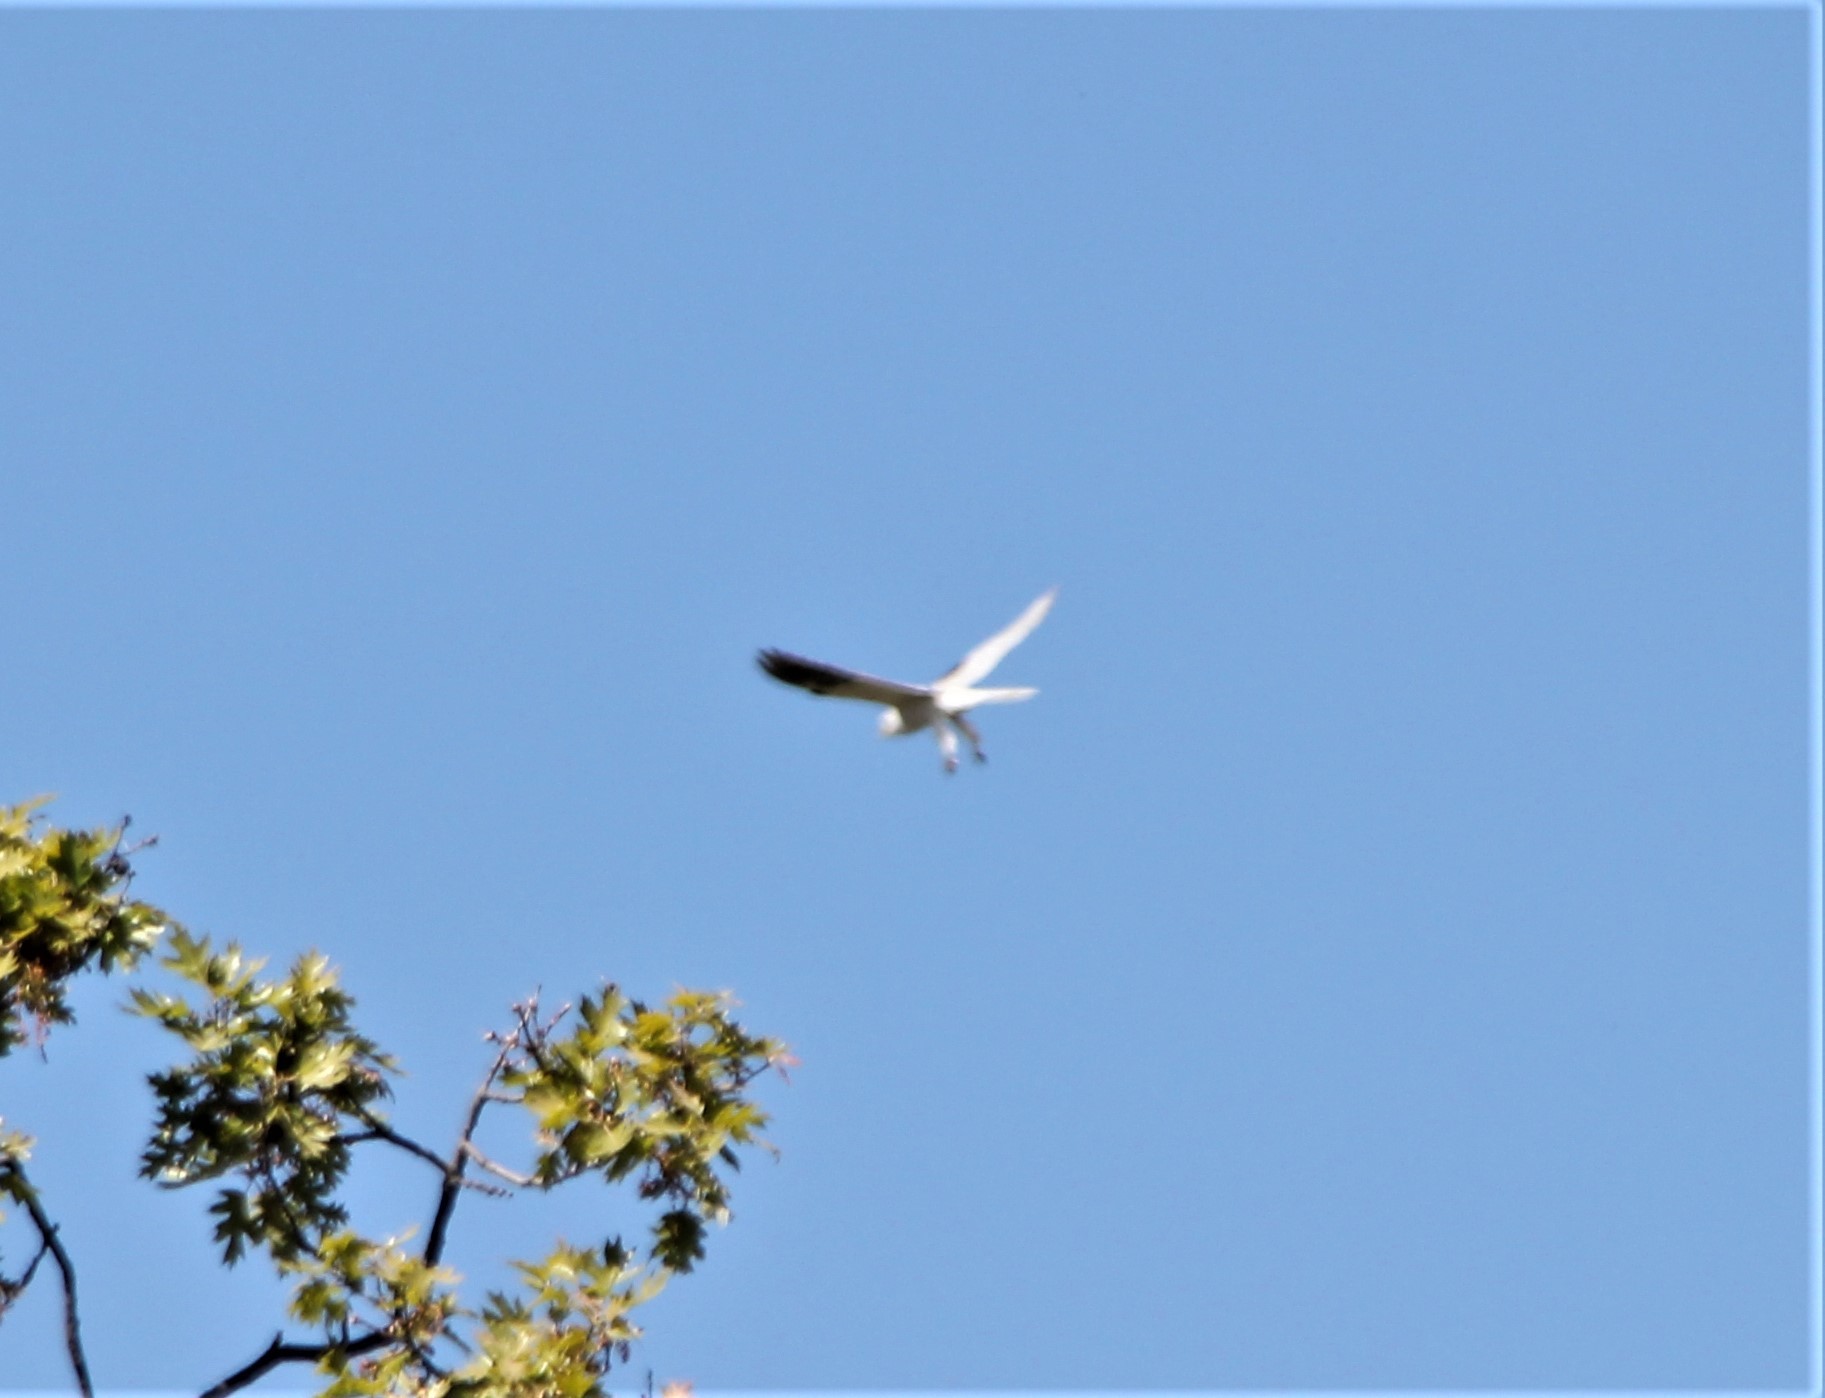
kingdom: Animalia
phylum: Chordata
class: Aves
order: Accipitriformes
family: Accipitridae
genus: Elanus
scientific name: Elanus leucurus
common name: White-tailed kite
